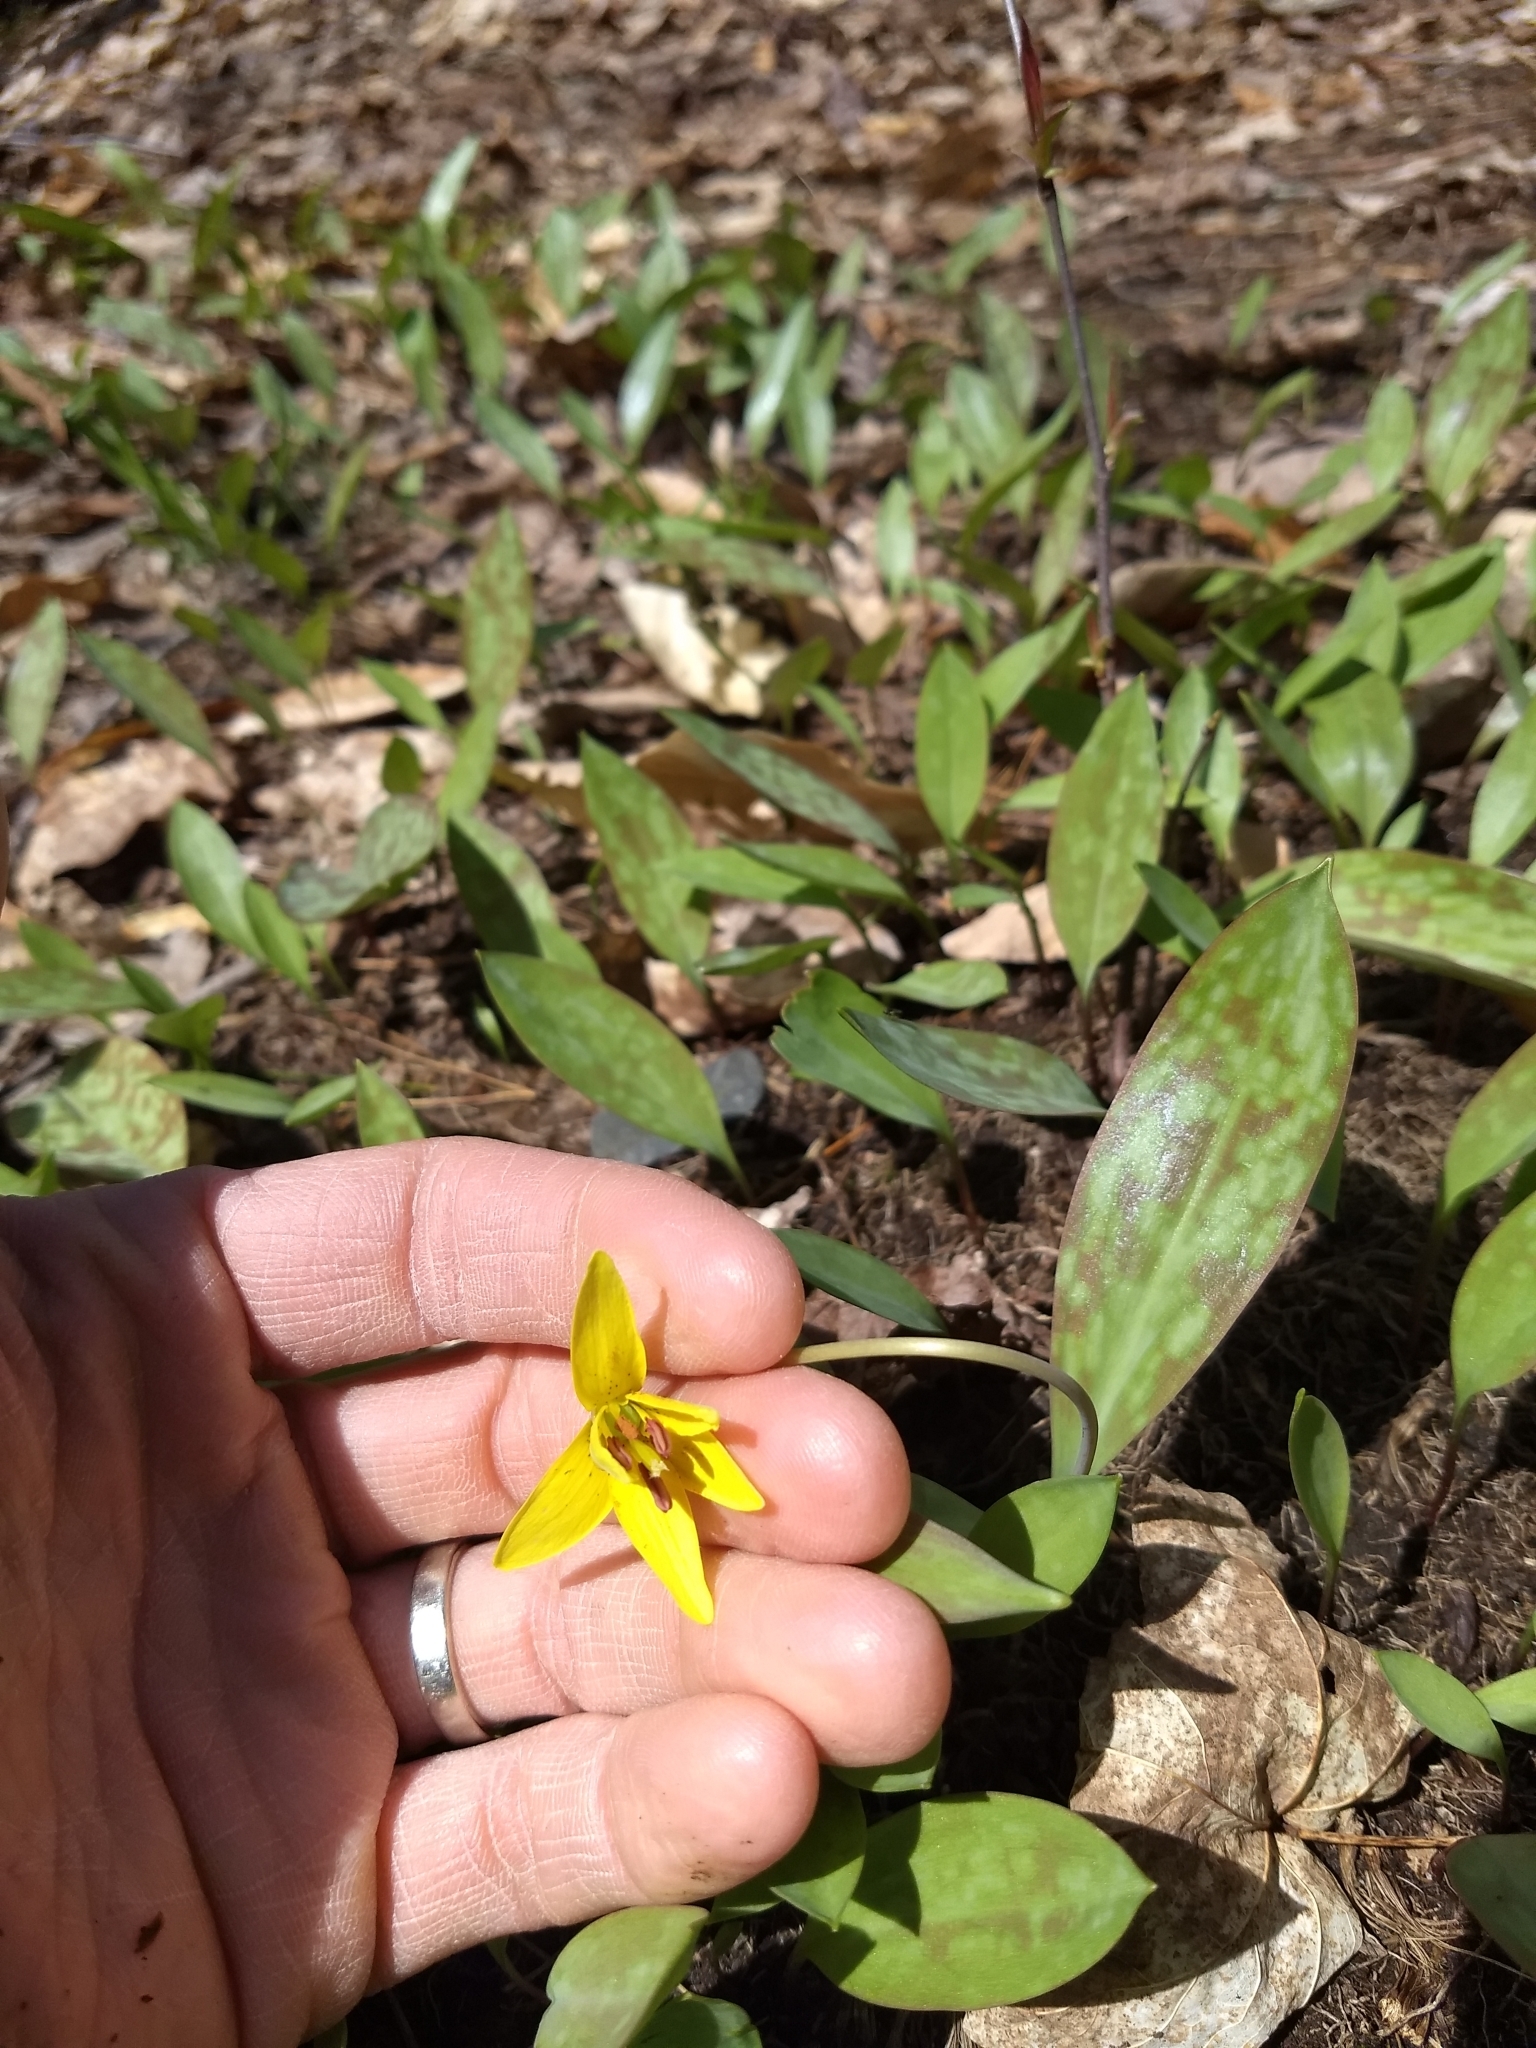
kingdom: Plantae
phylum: Tracheophyta
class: Liliopsida
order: Liliales
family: Liliaceae
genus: Erythronium
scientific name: Erythronium americanum
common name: Yellow adder's-tongue
